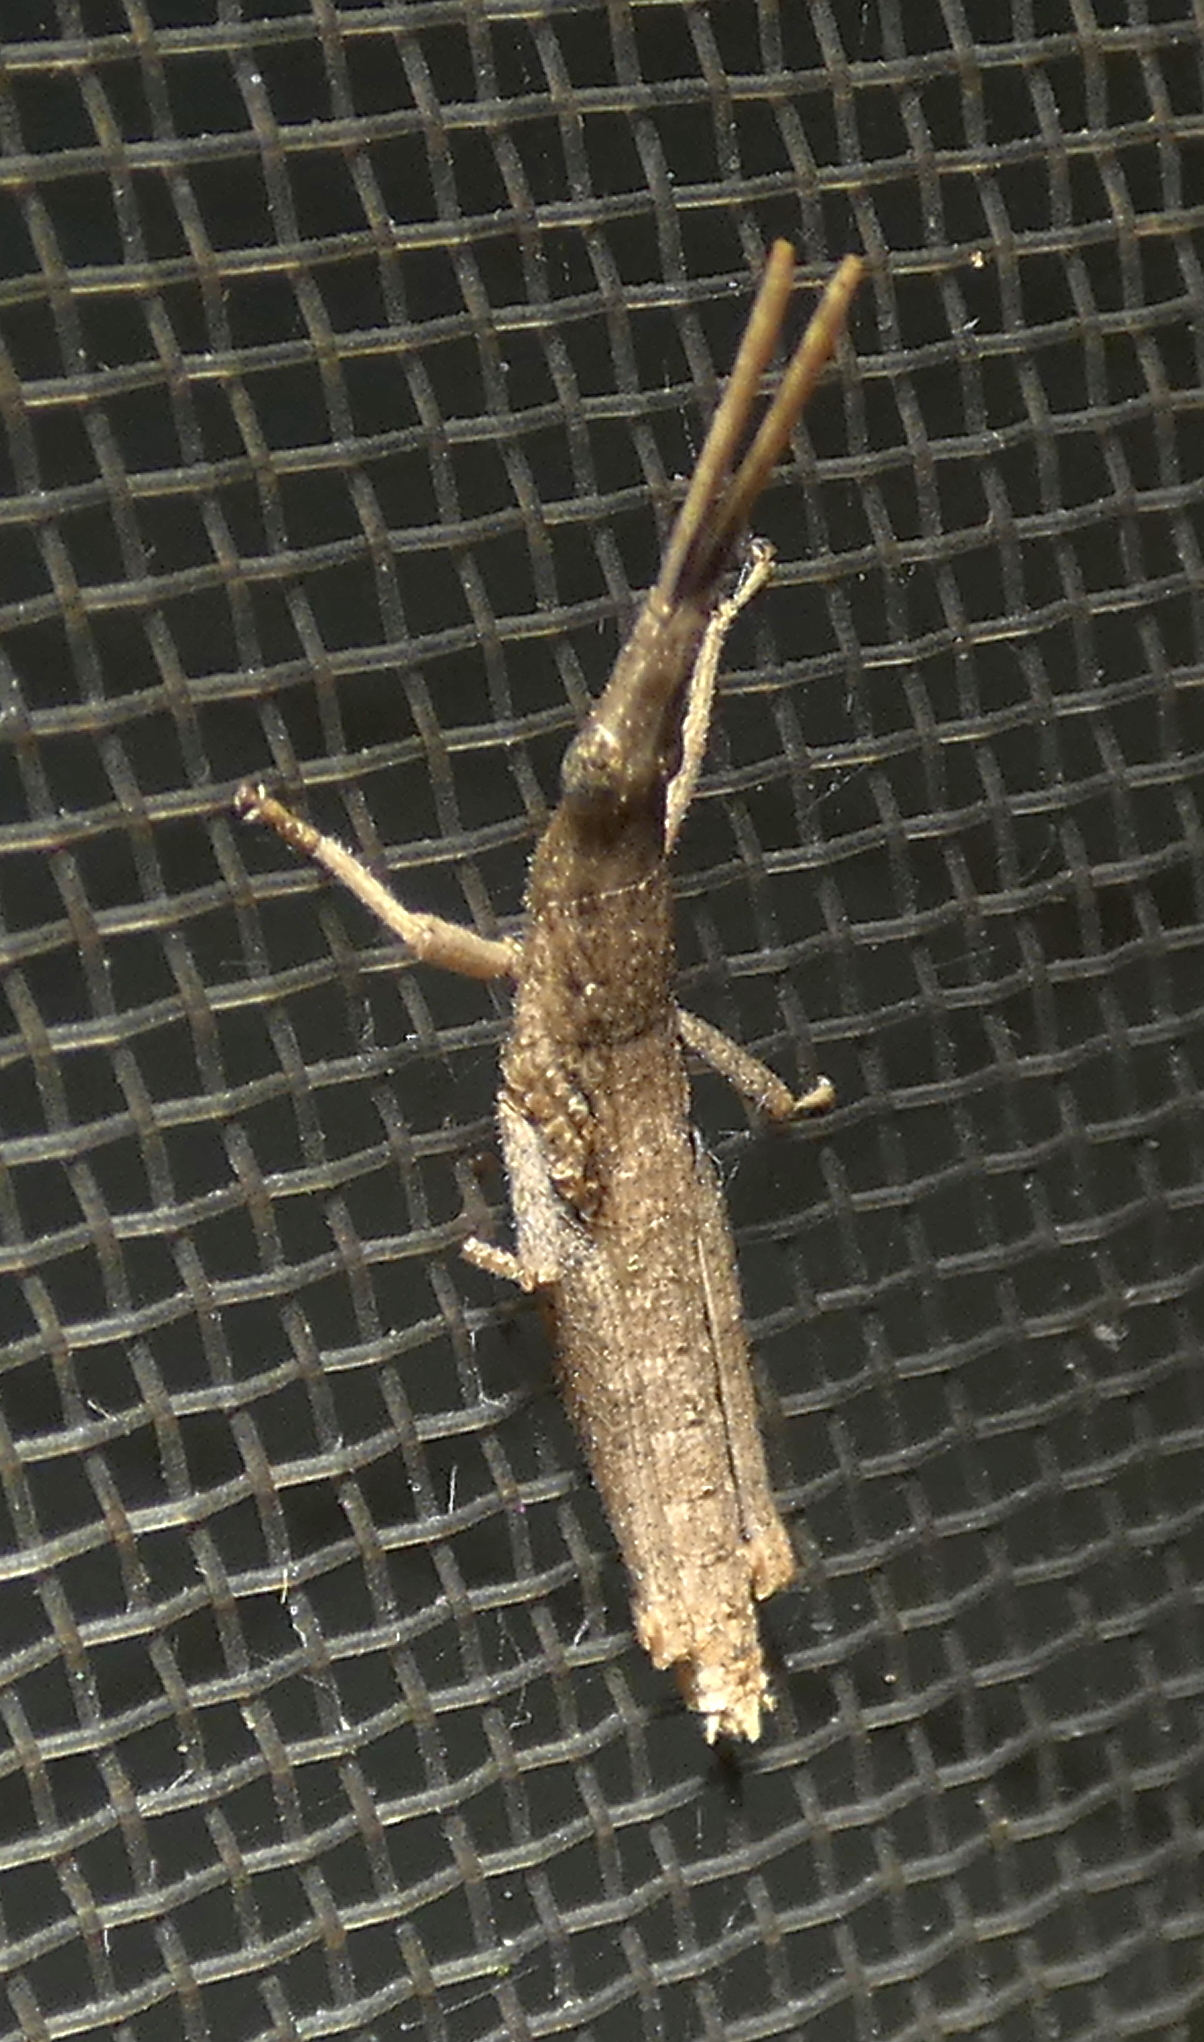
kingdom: Animalia
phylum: Arthropoda
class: Insecta
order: Orthoptera
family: Pyrgomorphidae
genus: Algete
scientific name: Algete brunneri
